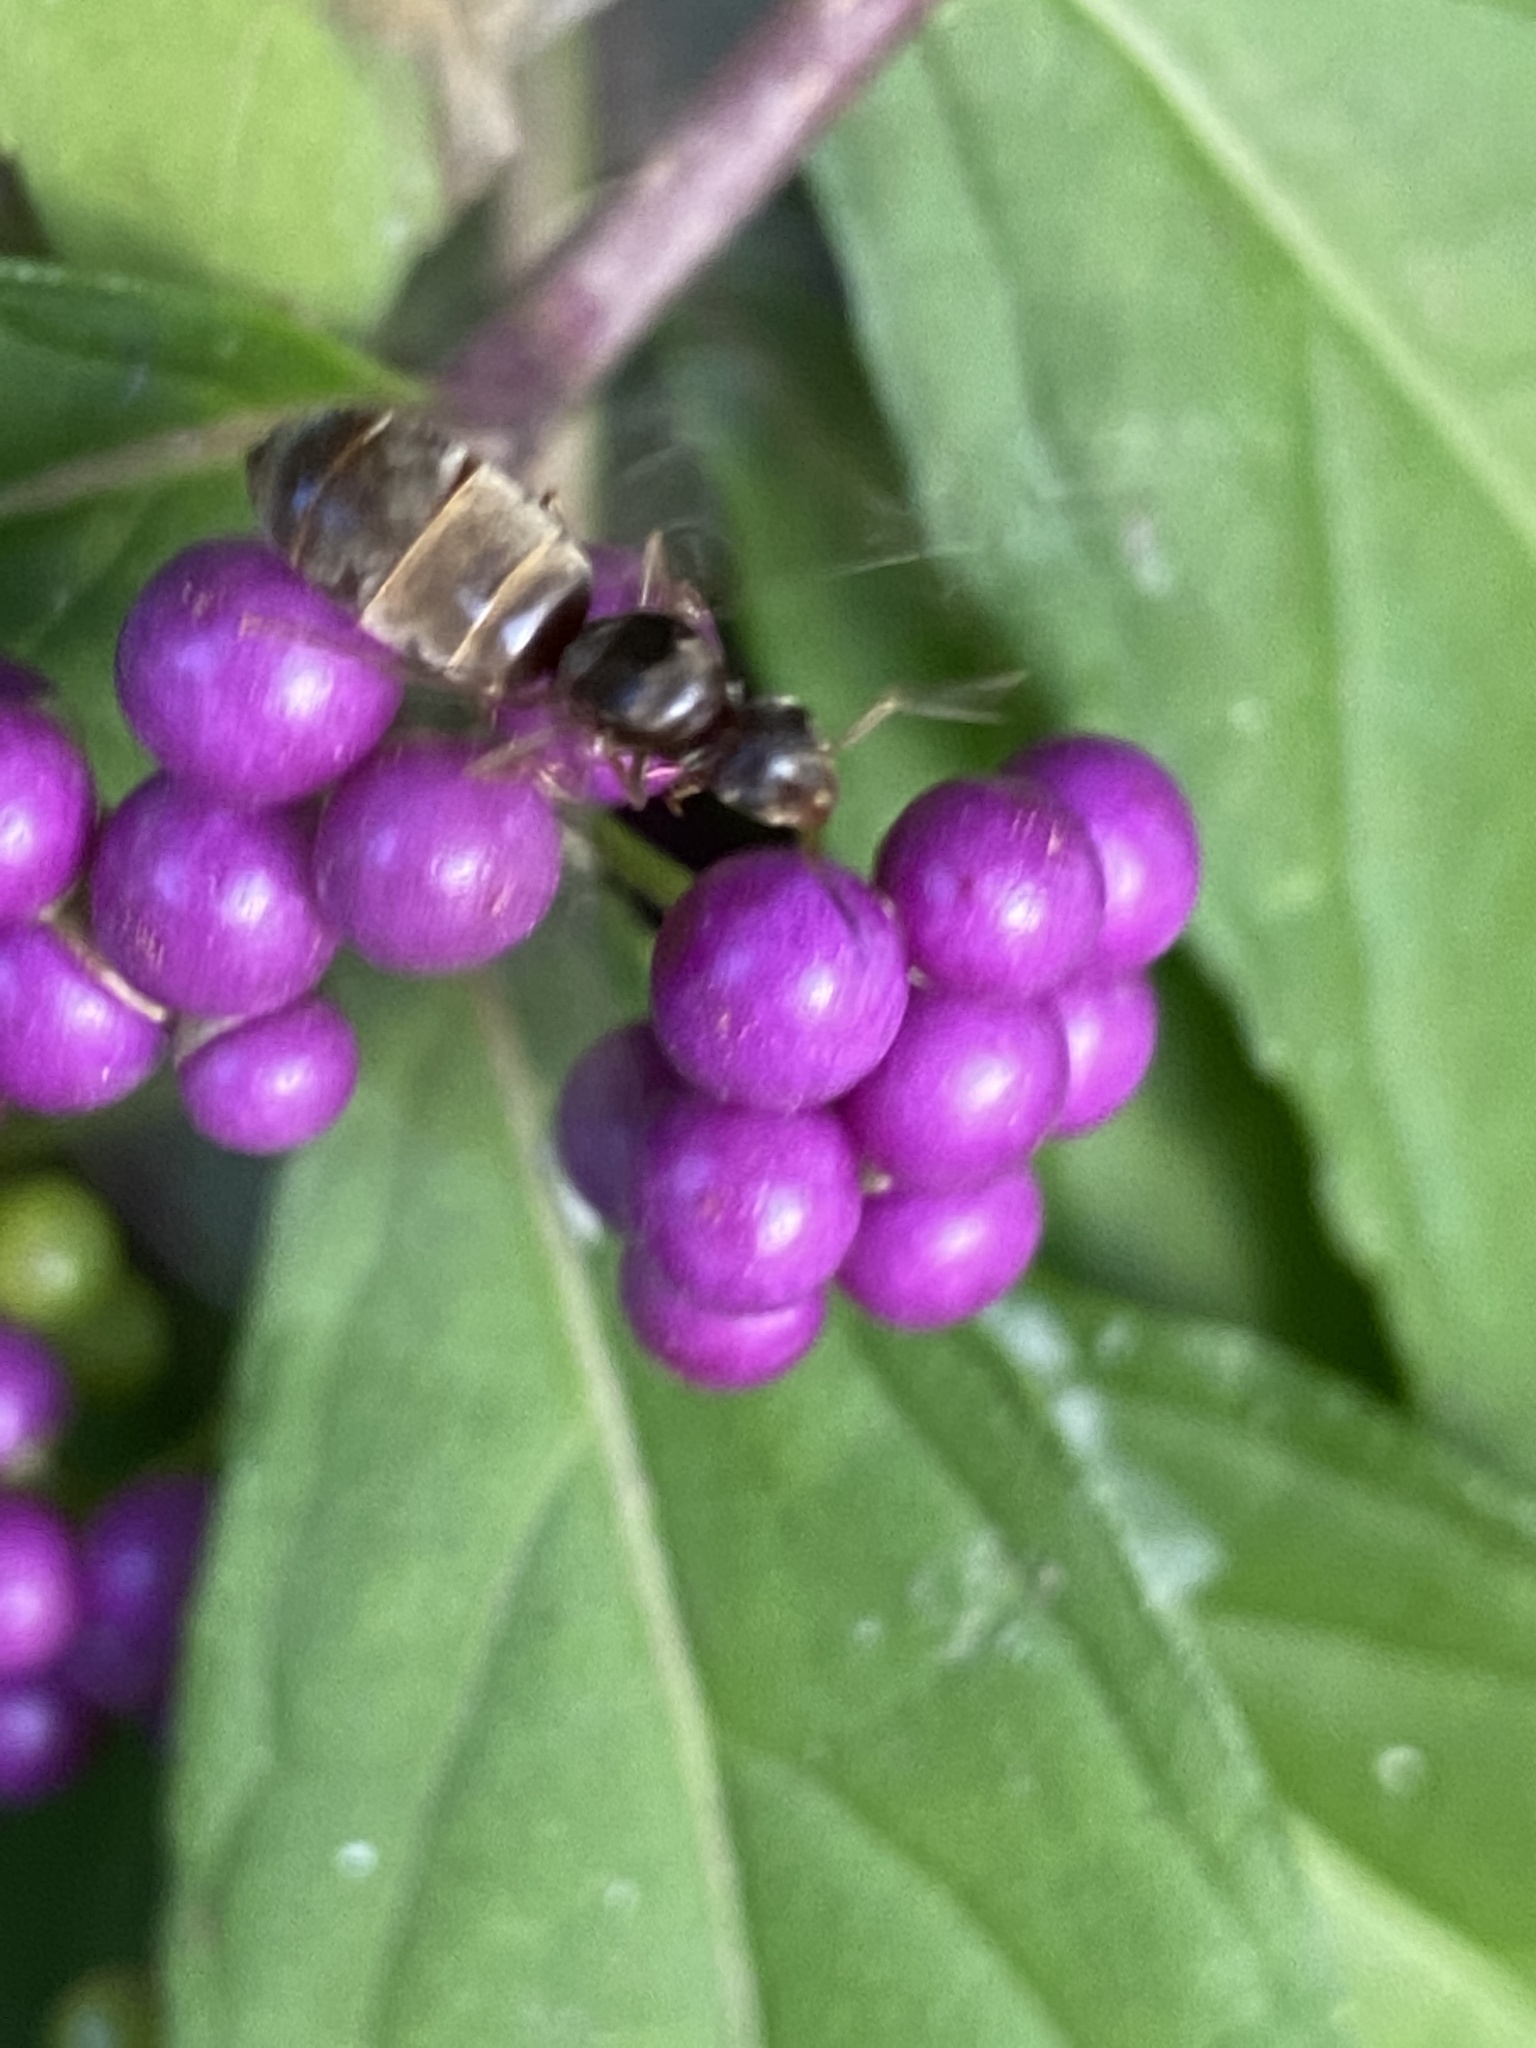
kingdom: Animalia
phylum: Arthropoda
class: Insecta
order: Hymenoptera
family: Formicidae
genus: Lasius
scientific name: Lasius neoniger
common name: Turfgrass ant
